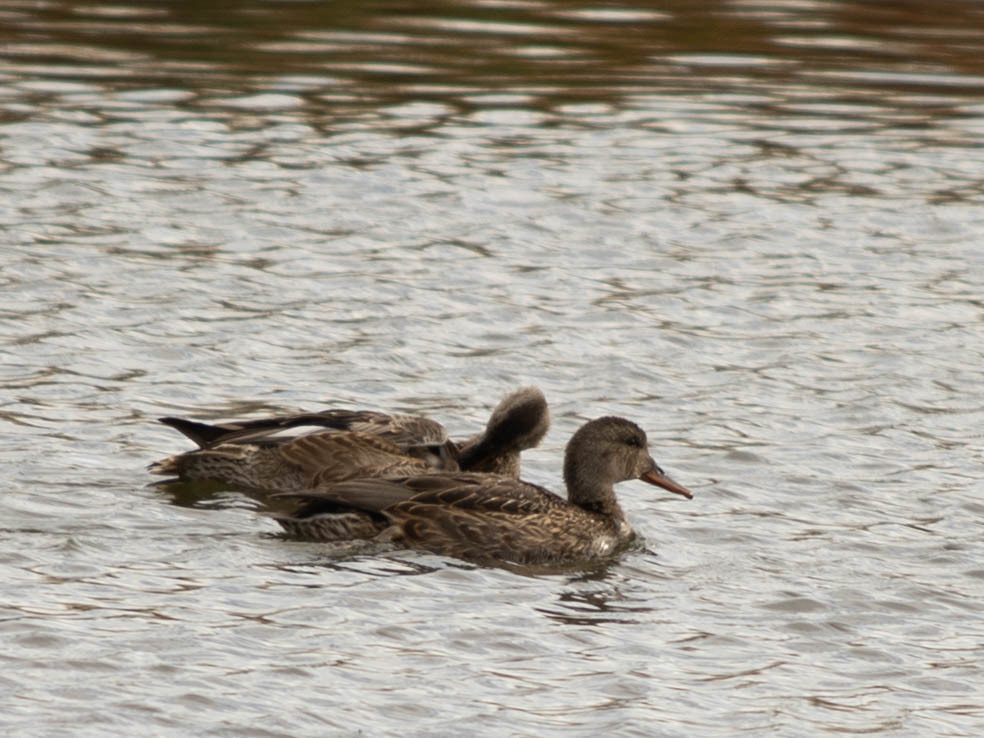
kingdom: Animalia
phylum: Chordata
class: Aves
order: Anseriformes
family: Anatidae
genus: Mareca
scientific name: Mareca strepera
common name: Gadwall
